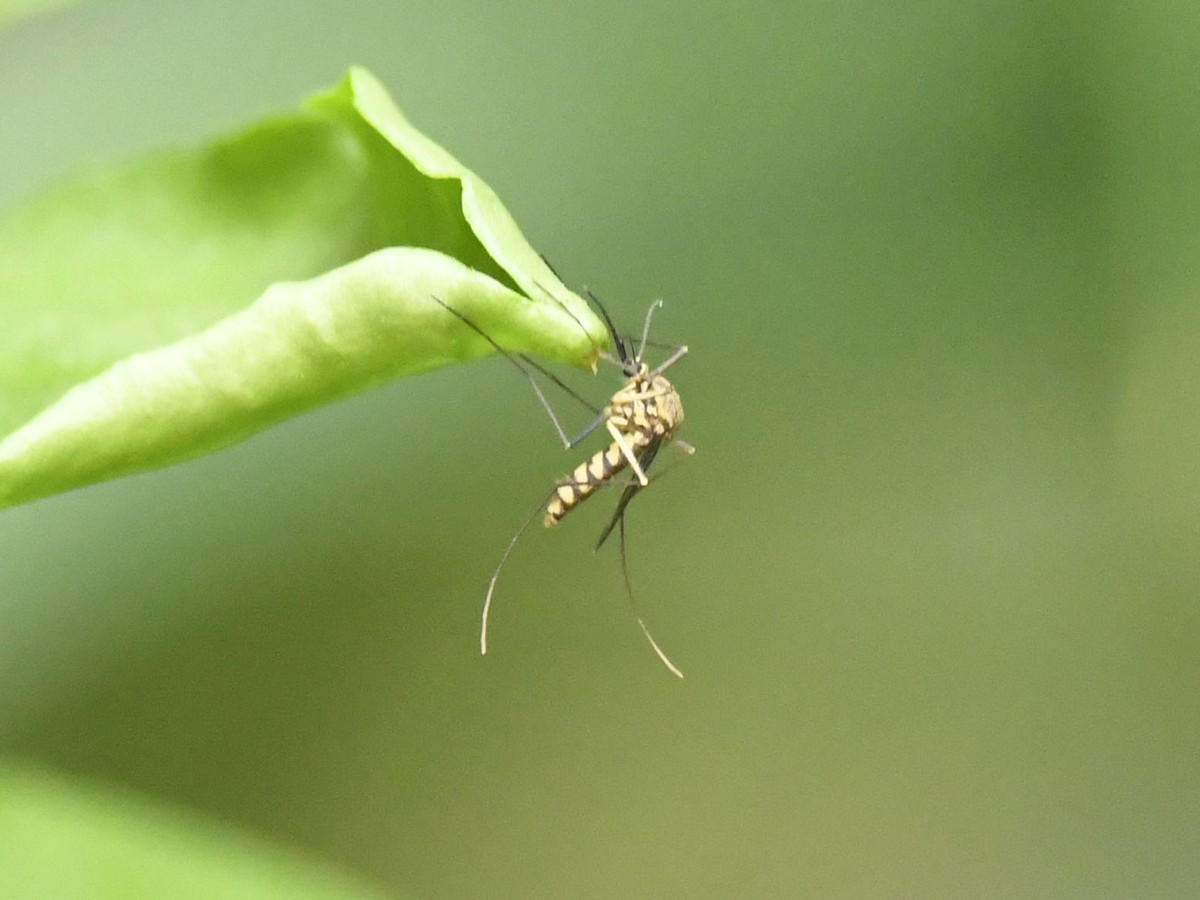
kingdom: Animalia
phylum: Arthropoda
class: Insecta
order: Diptera
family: Culicidae
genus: Armigeres
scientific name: Armigeres subalbatus
